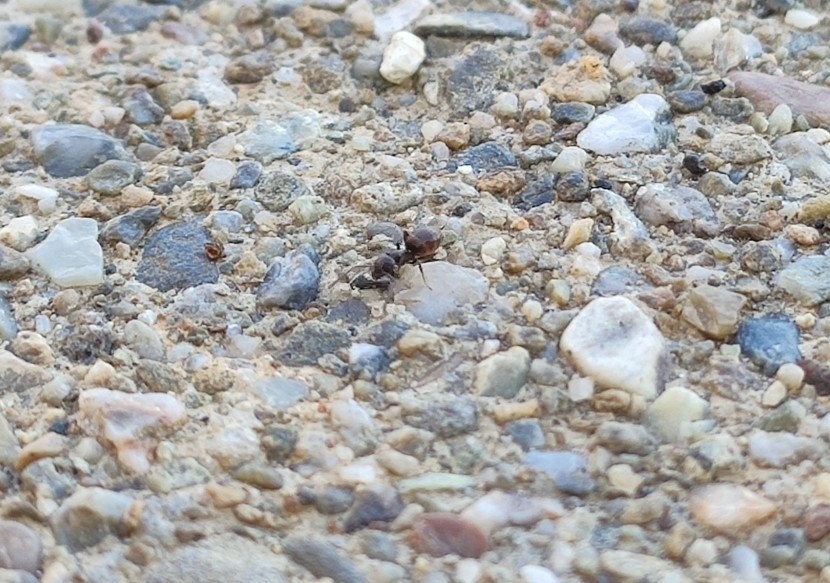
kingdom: Animalia
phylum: Arthropoda
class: Insecta
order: Hymenoptera
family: Formicidae
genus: Tapinoma
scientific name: Tapinoma sessile
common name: Odorous house ant
